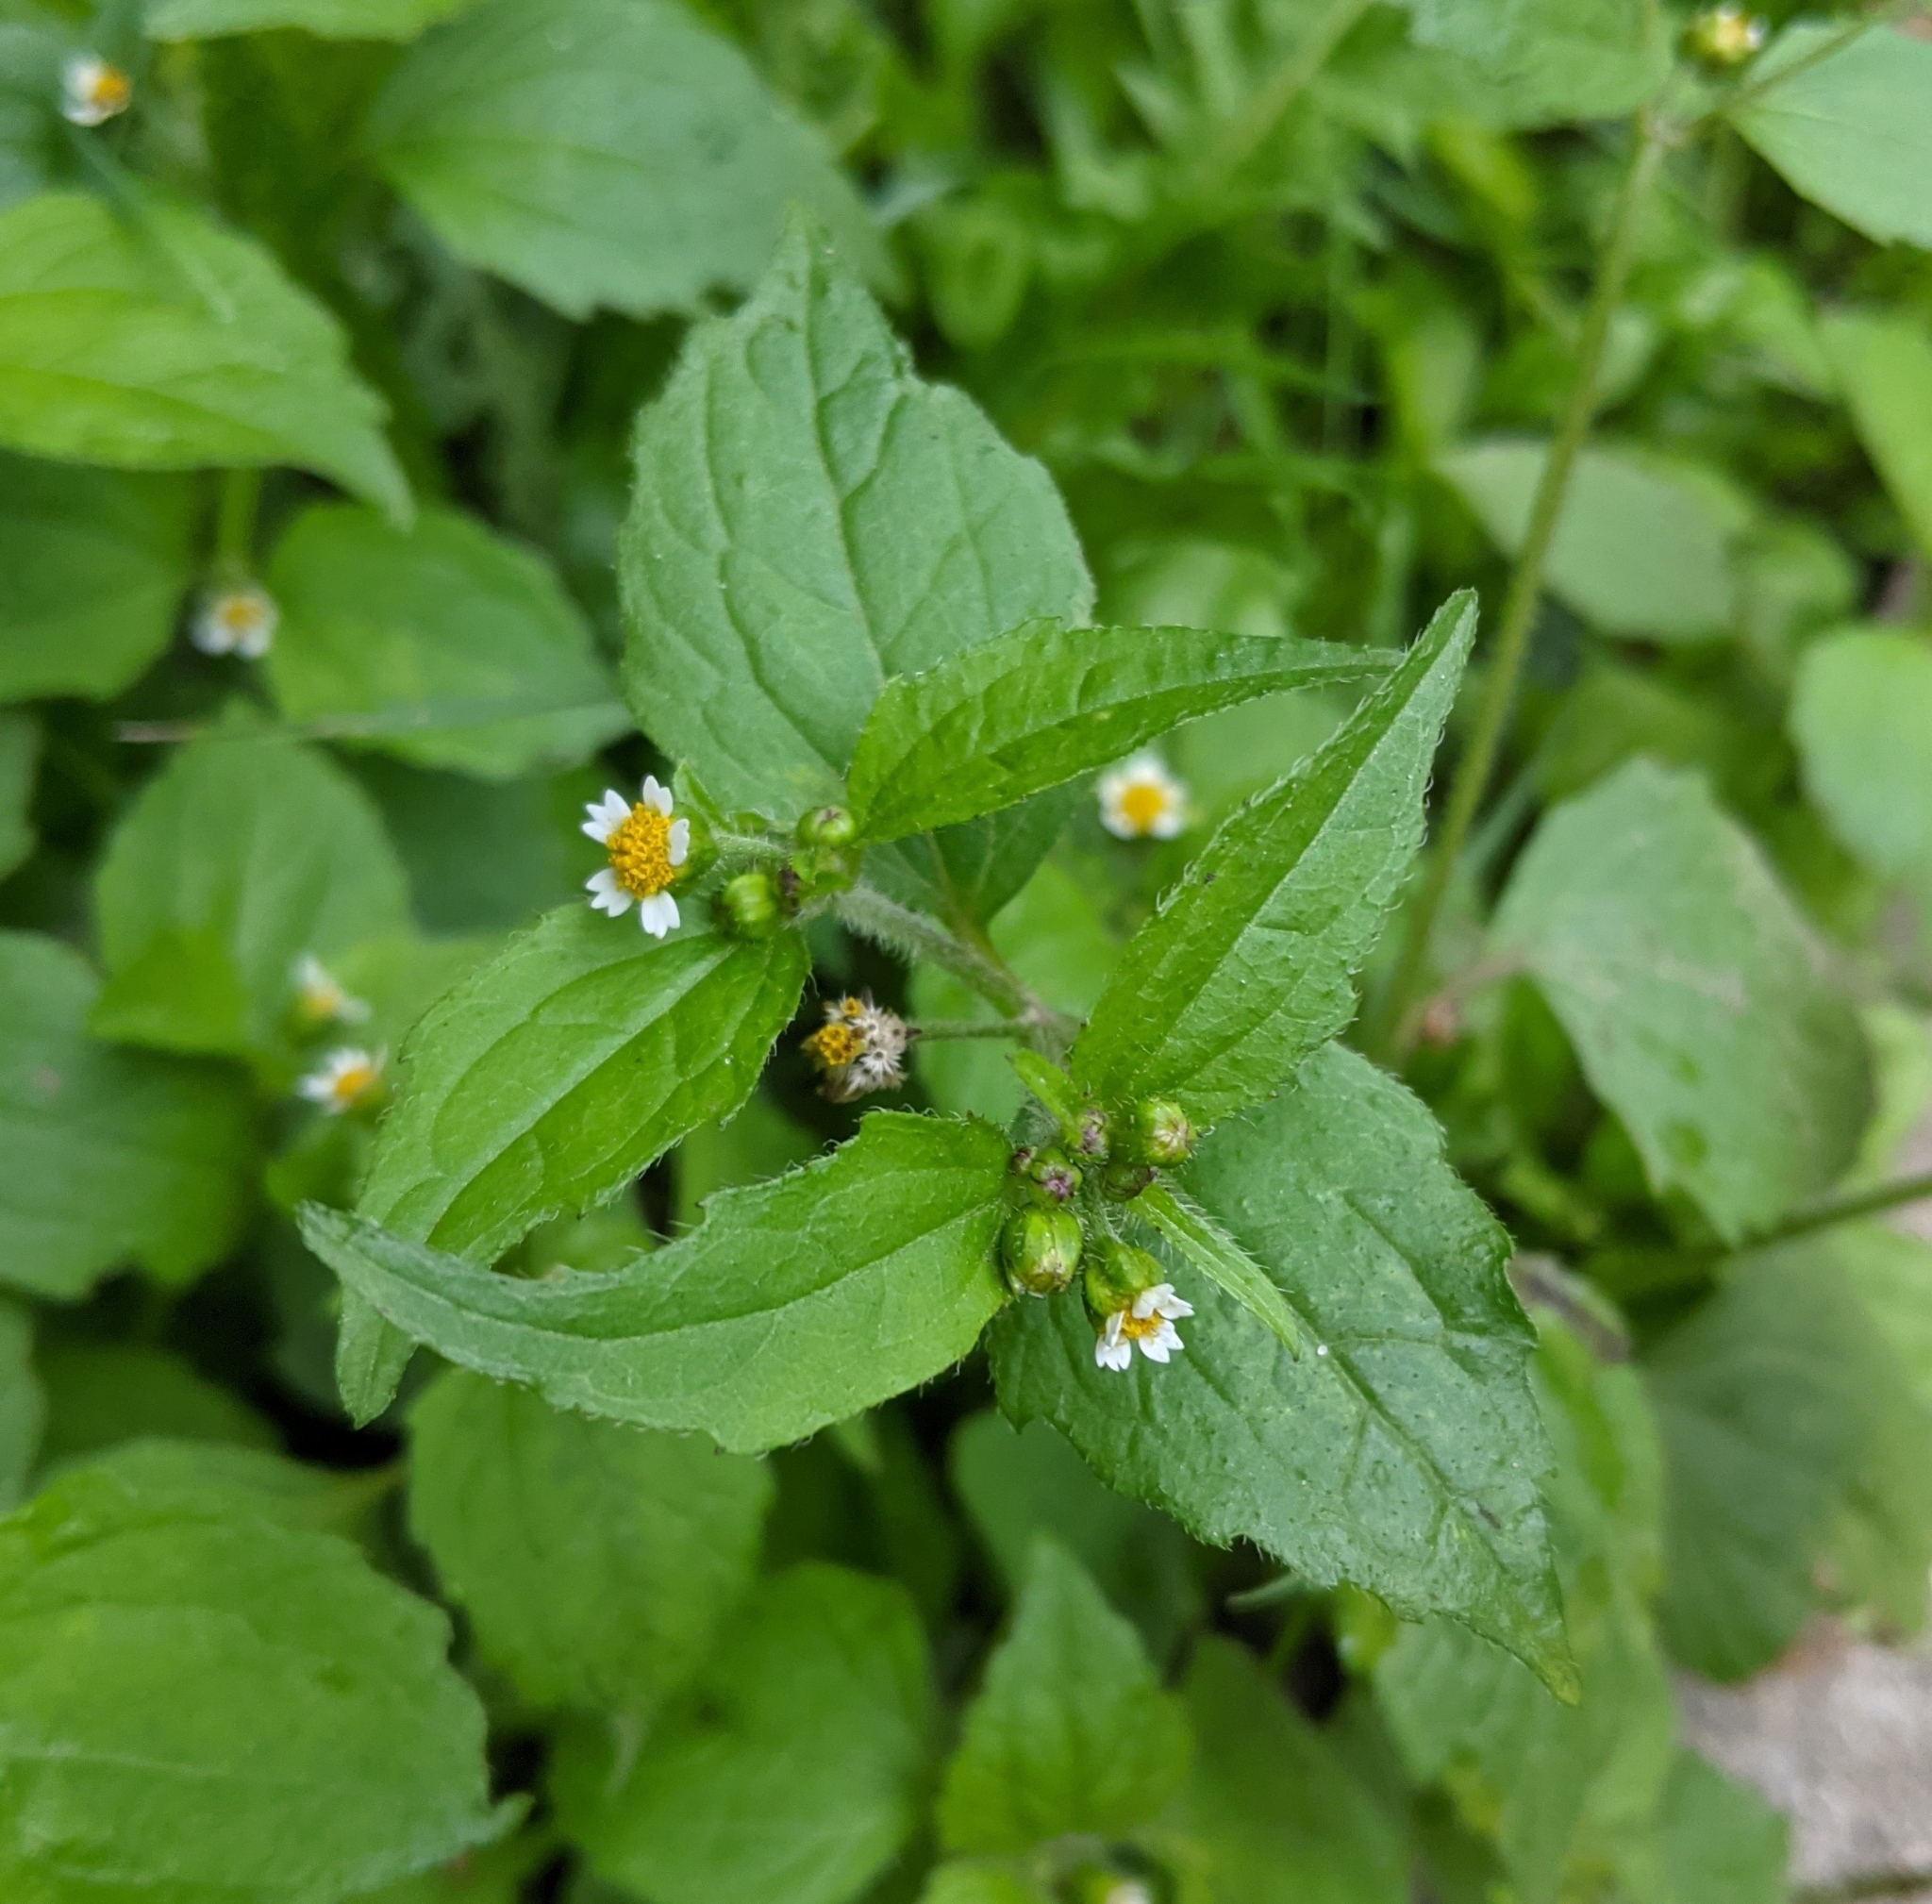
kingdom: Plantae
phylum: Tracheophyta
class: Magnoliopsida
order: Asterales
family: Asteraceae
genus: Galinsoga
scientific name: Galinsoga quadriradiata
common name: Shaggy soldier
